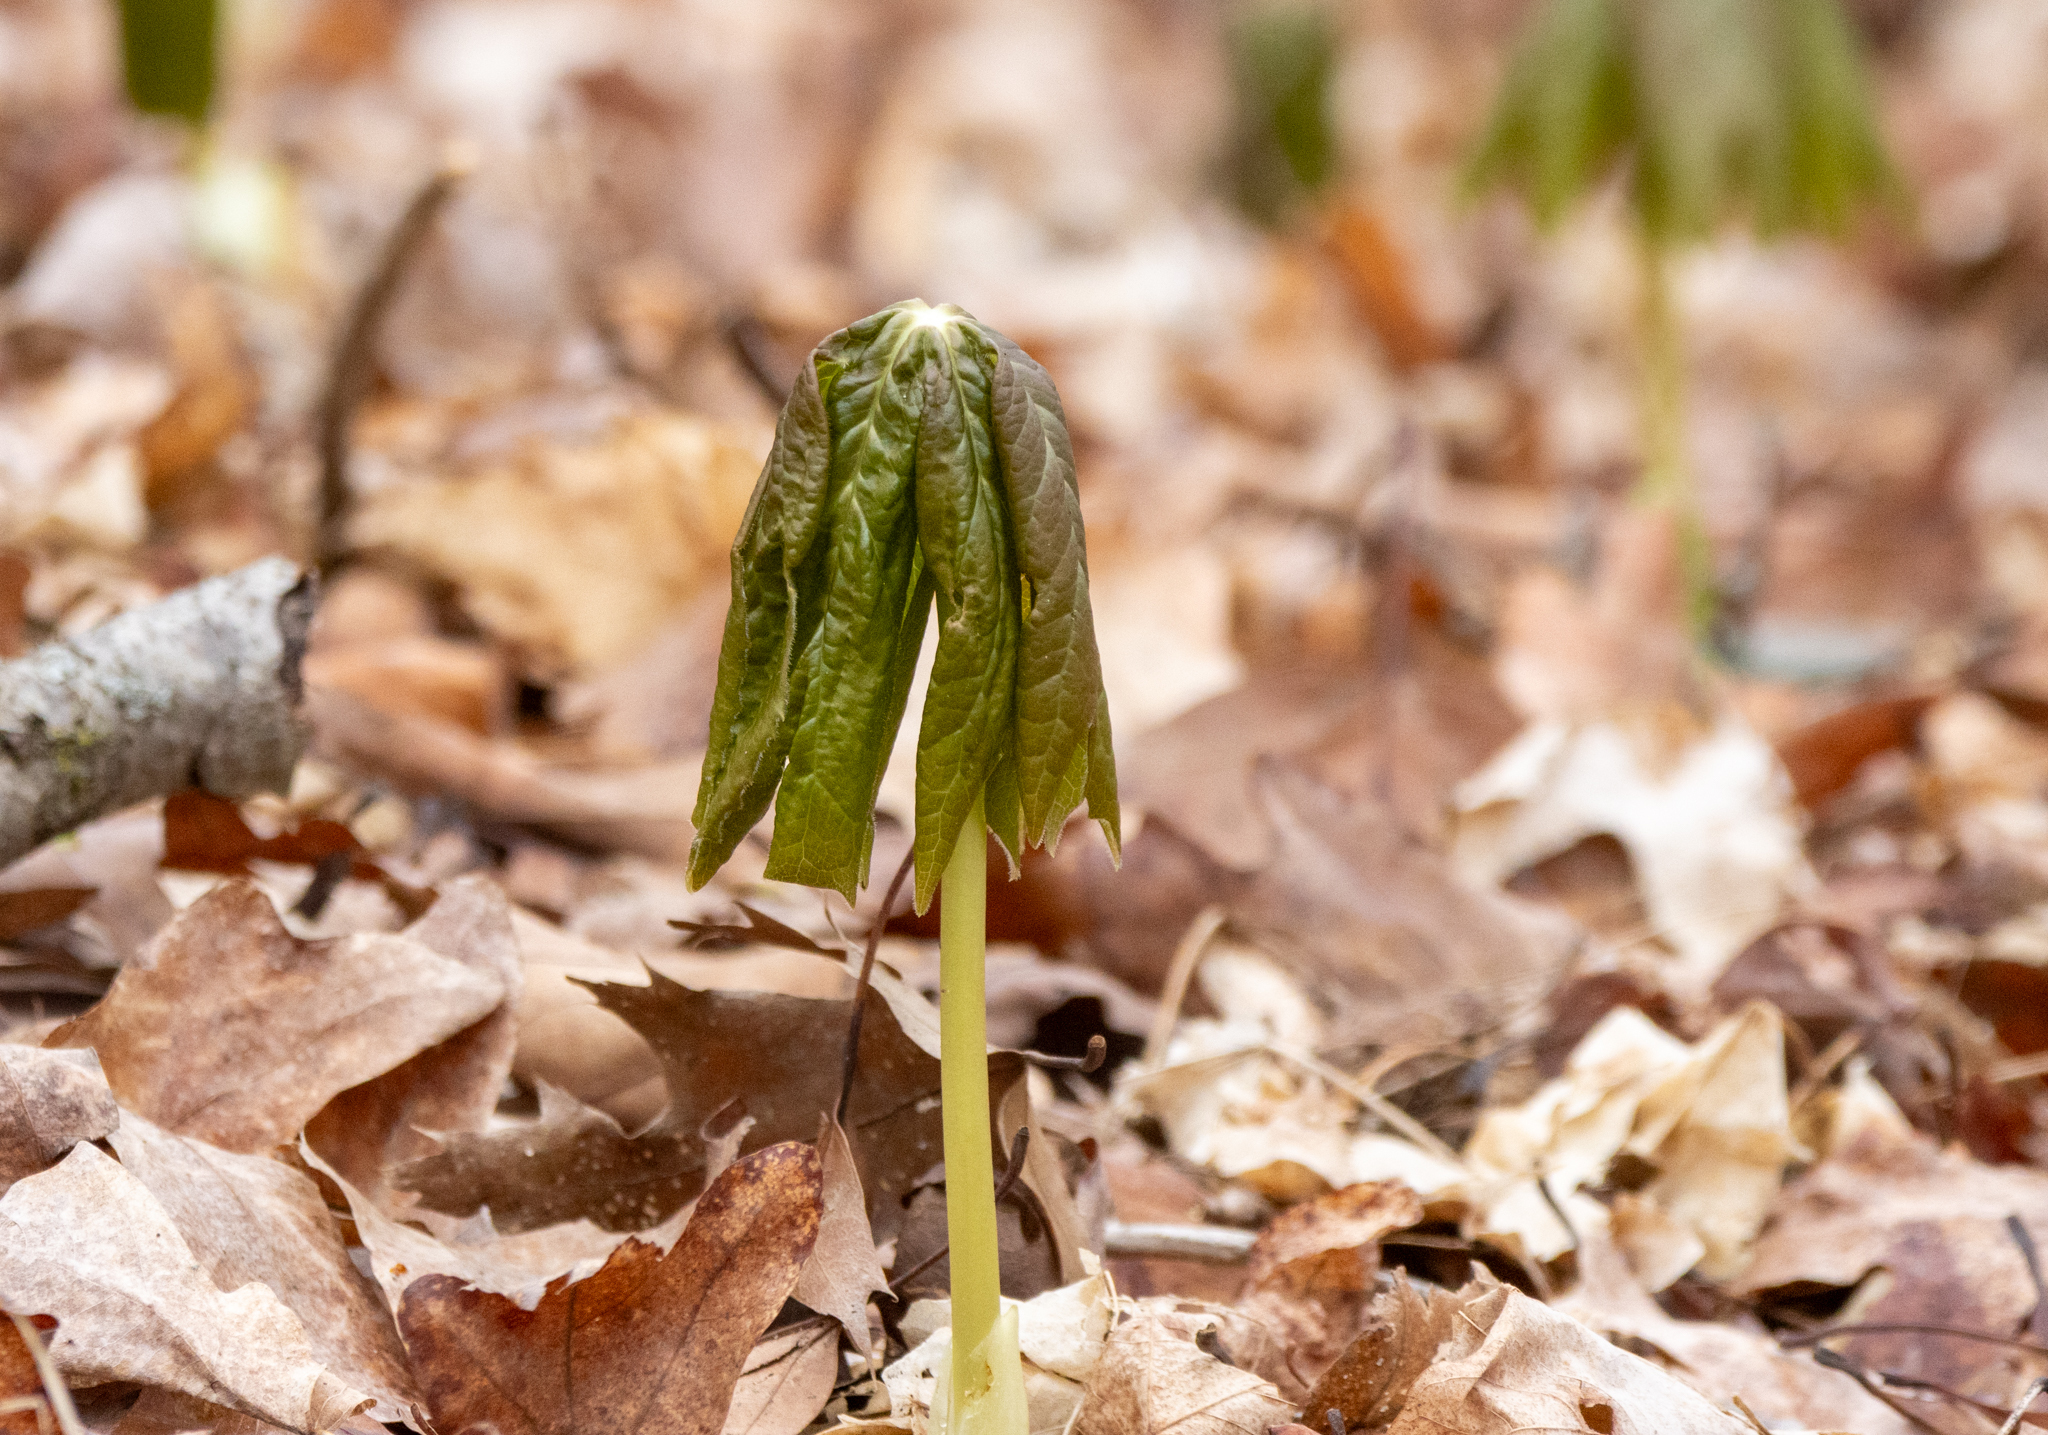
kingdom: Plantae
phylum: Tracheophyta
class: Magnoliopsida
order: Ranunculales
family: Berberidaceae
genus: Podophyllum
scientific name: Podophyllum peltatum
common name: Wild mandrake
